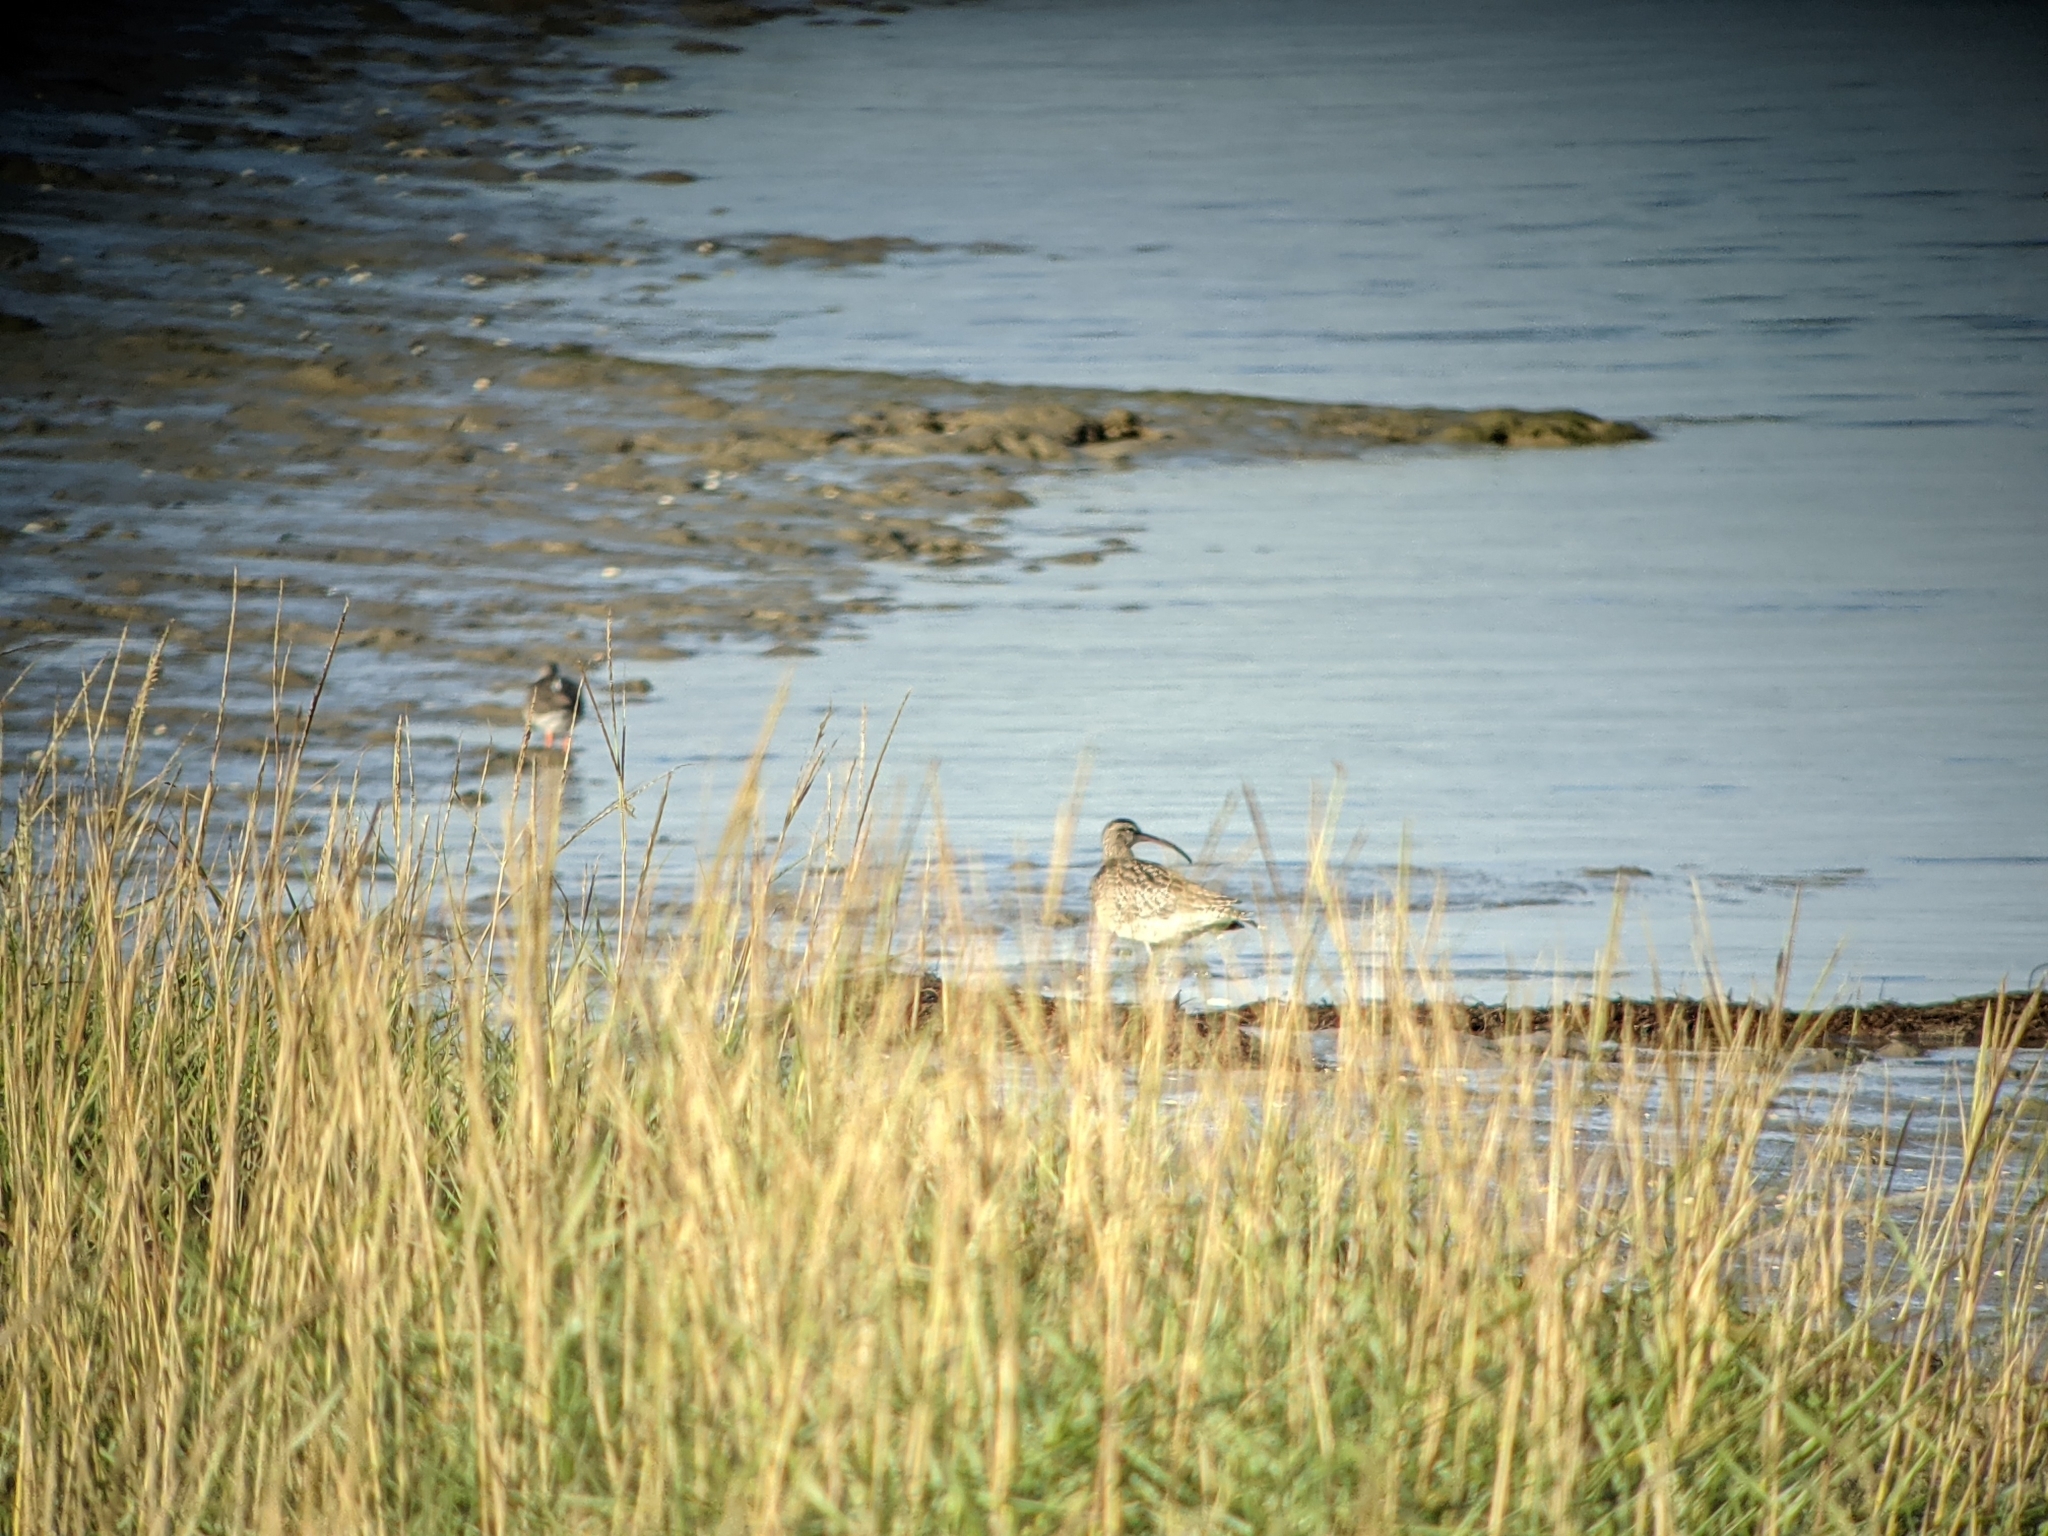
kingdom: Animalia
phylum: Chordata
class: Aves
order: Charadriiformes
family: Scolopacidae
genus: Numenius
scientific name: Numenius phaeopus
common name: Whimbrel
